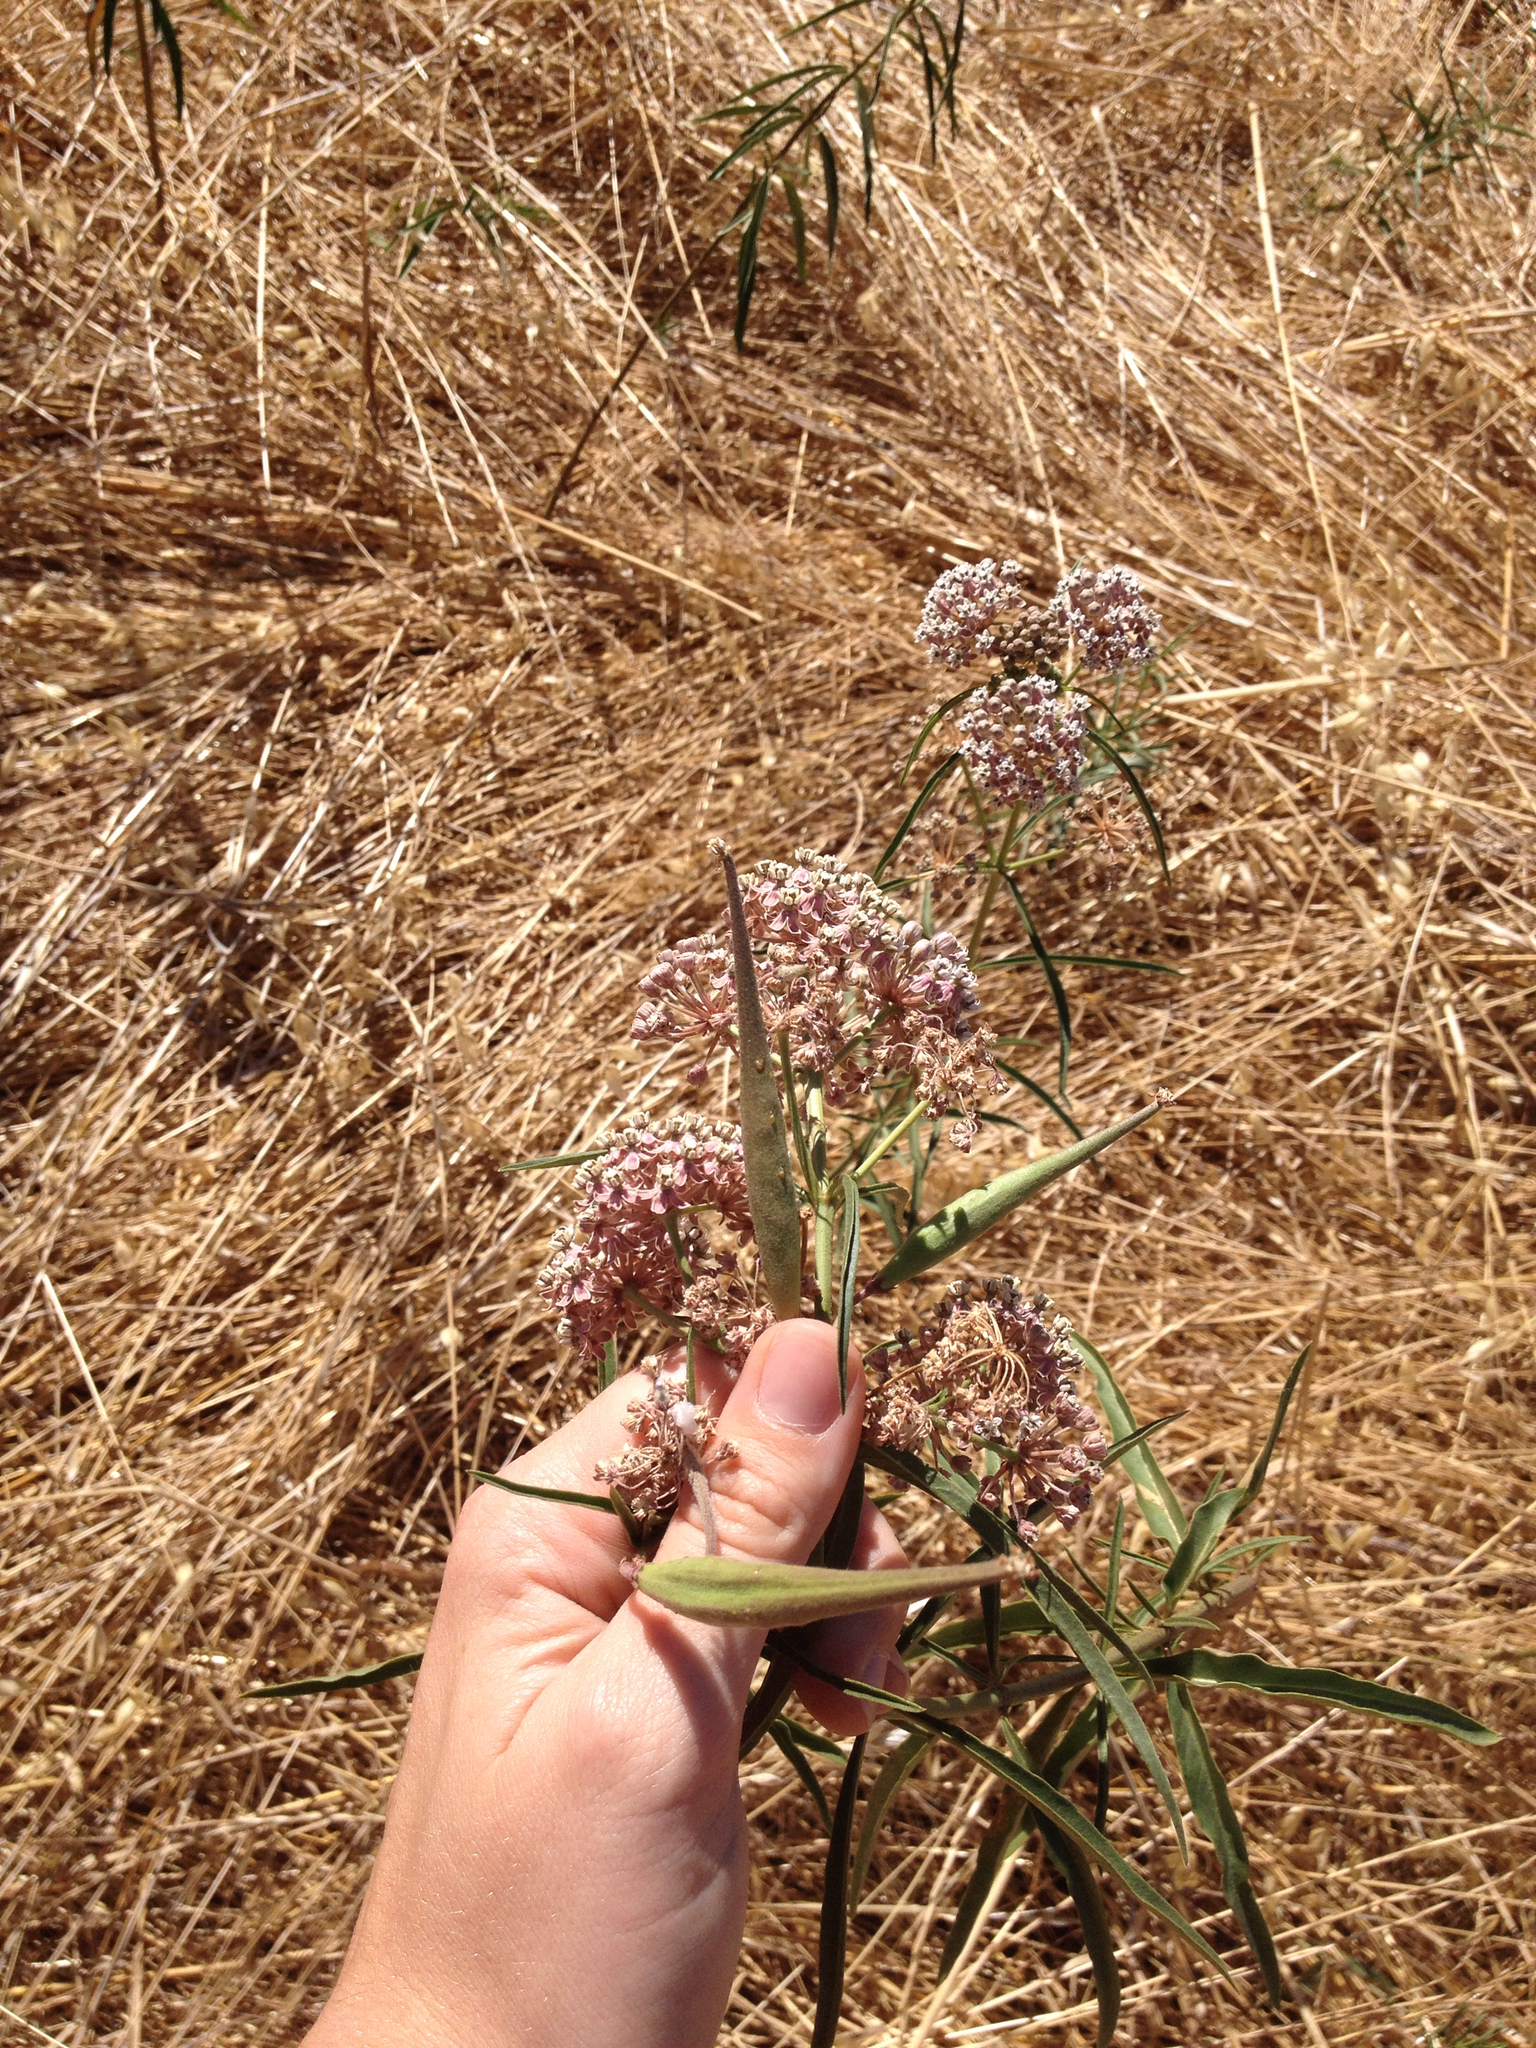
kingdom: Plantae
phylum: Tracheophyta
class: Magnoliopsida
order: Gentianales
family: Apocynaceae
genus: Asclepias
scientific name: Asclepias fascicularis
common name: Mexican milkweed
